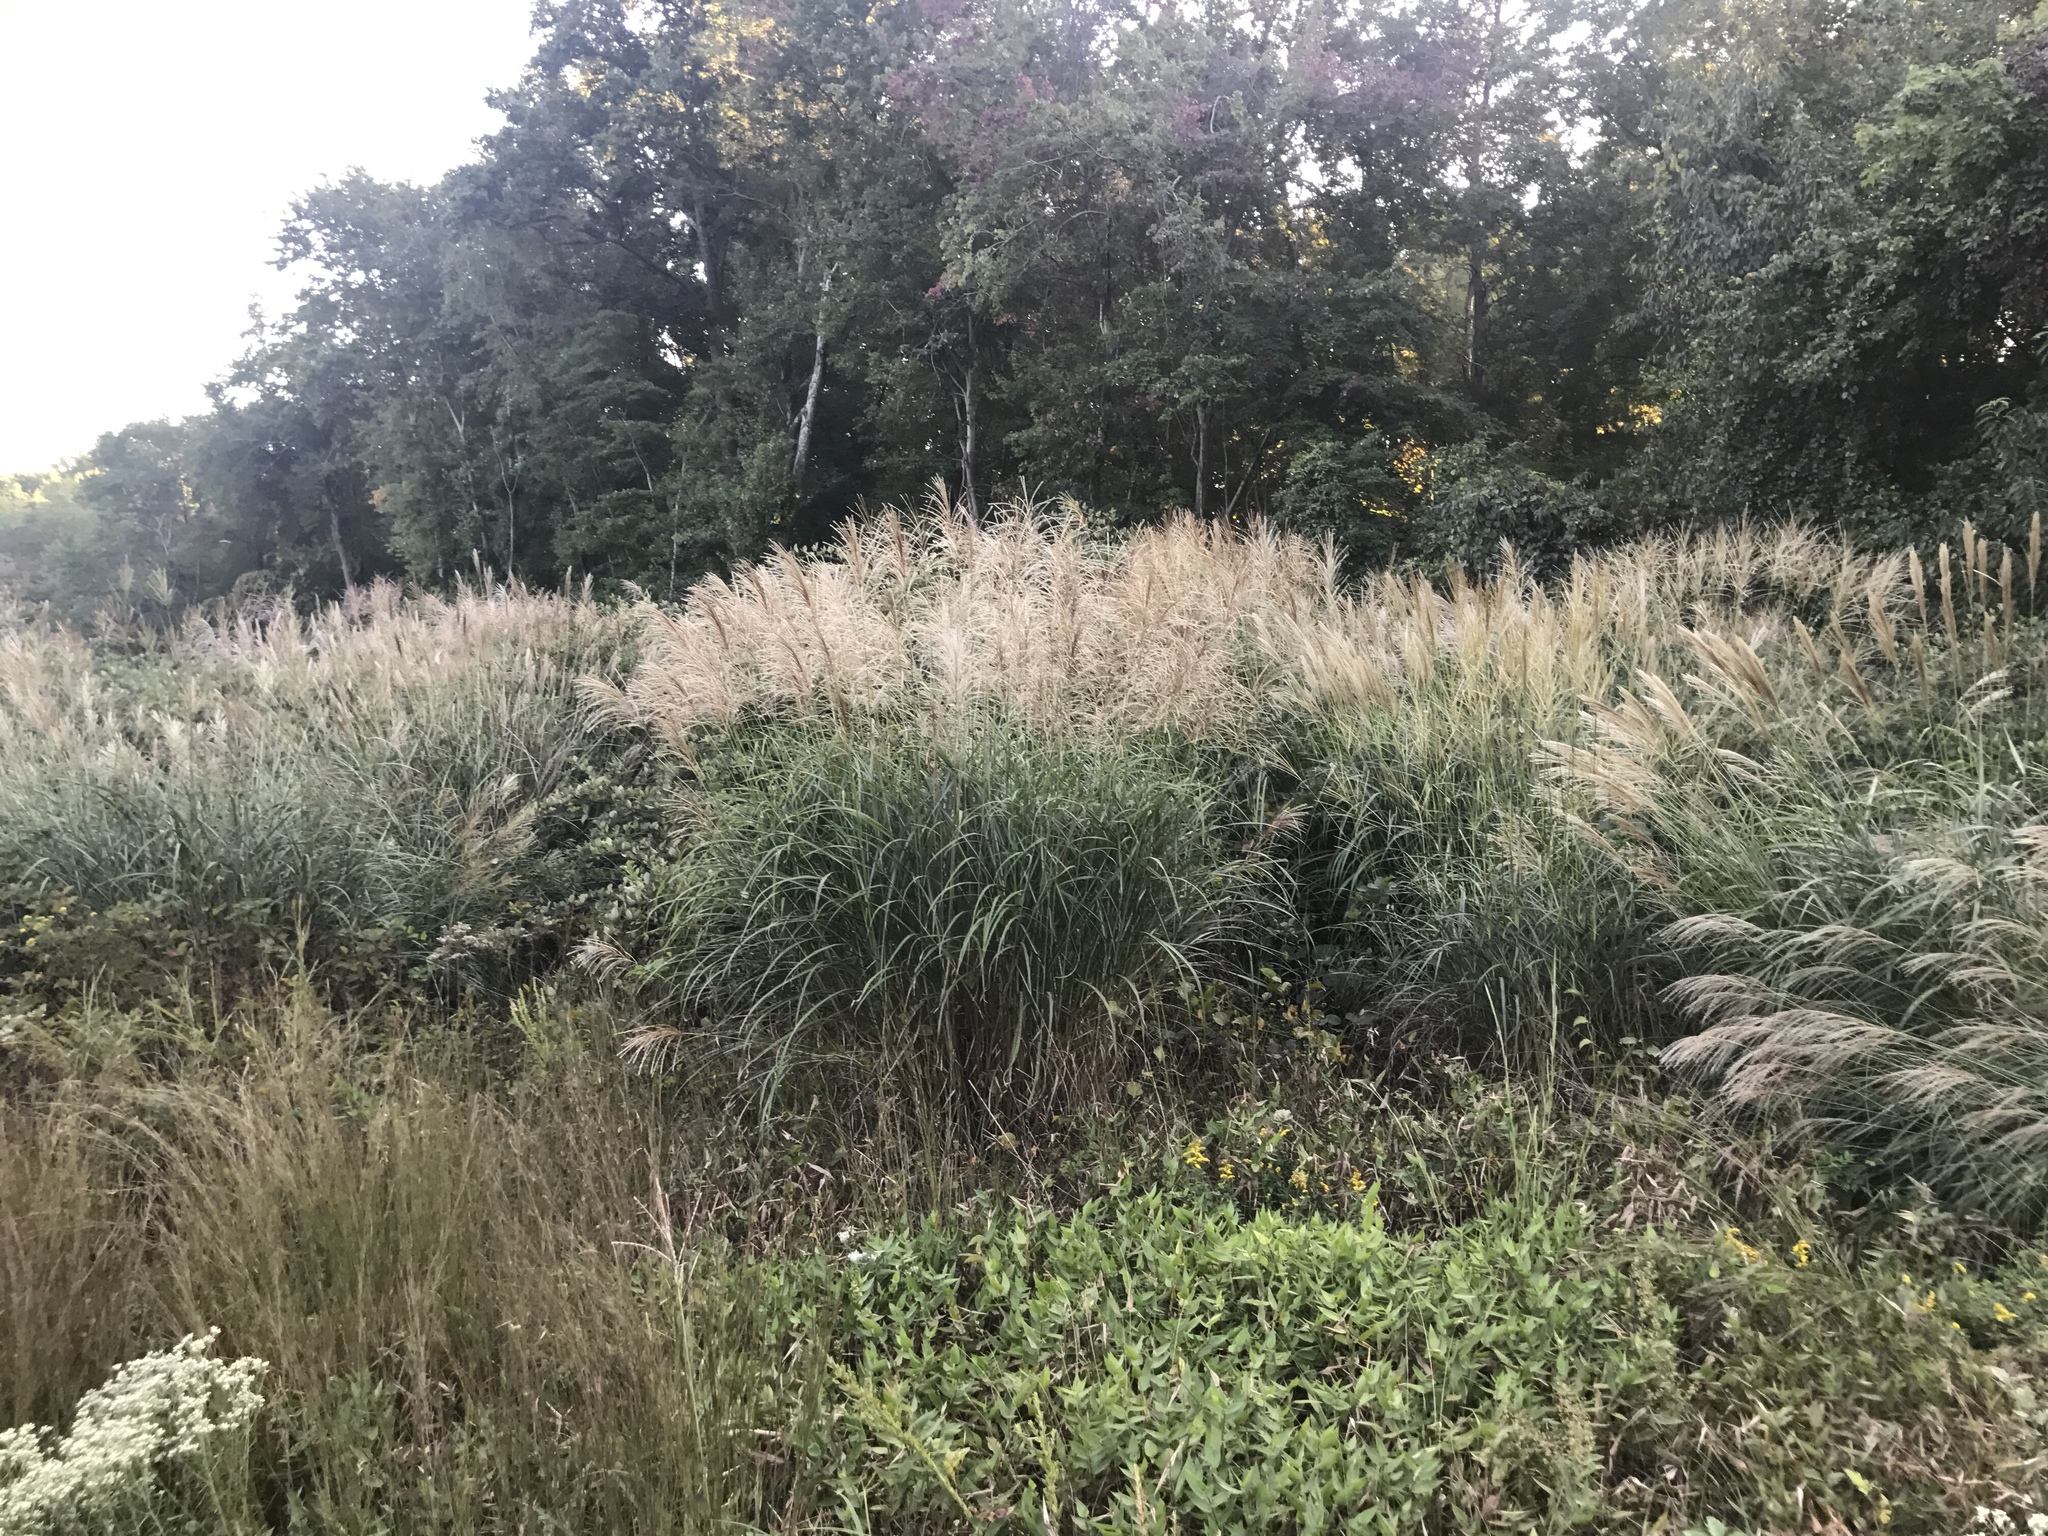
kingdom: Plantae
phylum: Tracheophyta
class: Liliopsida
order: Poales
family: Poaceae
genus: Miscanthus
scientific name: Miscanthus sinensis
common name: Chinese silvergrass
